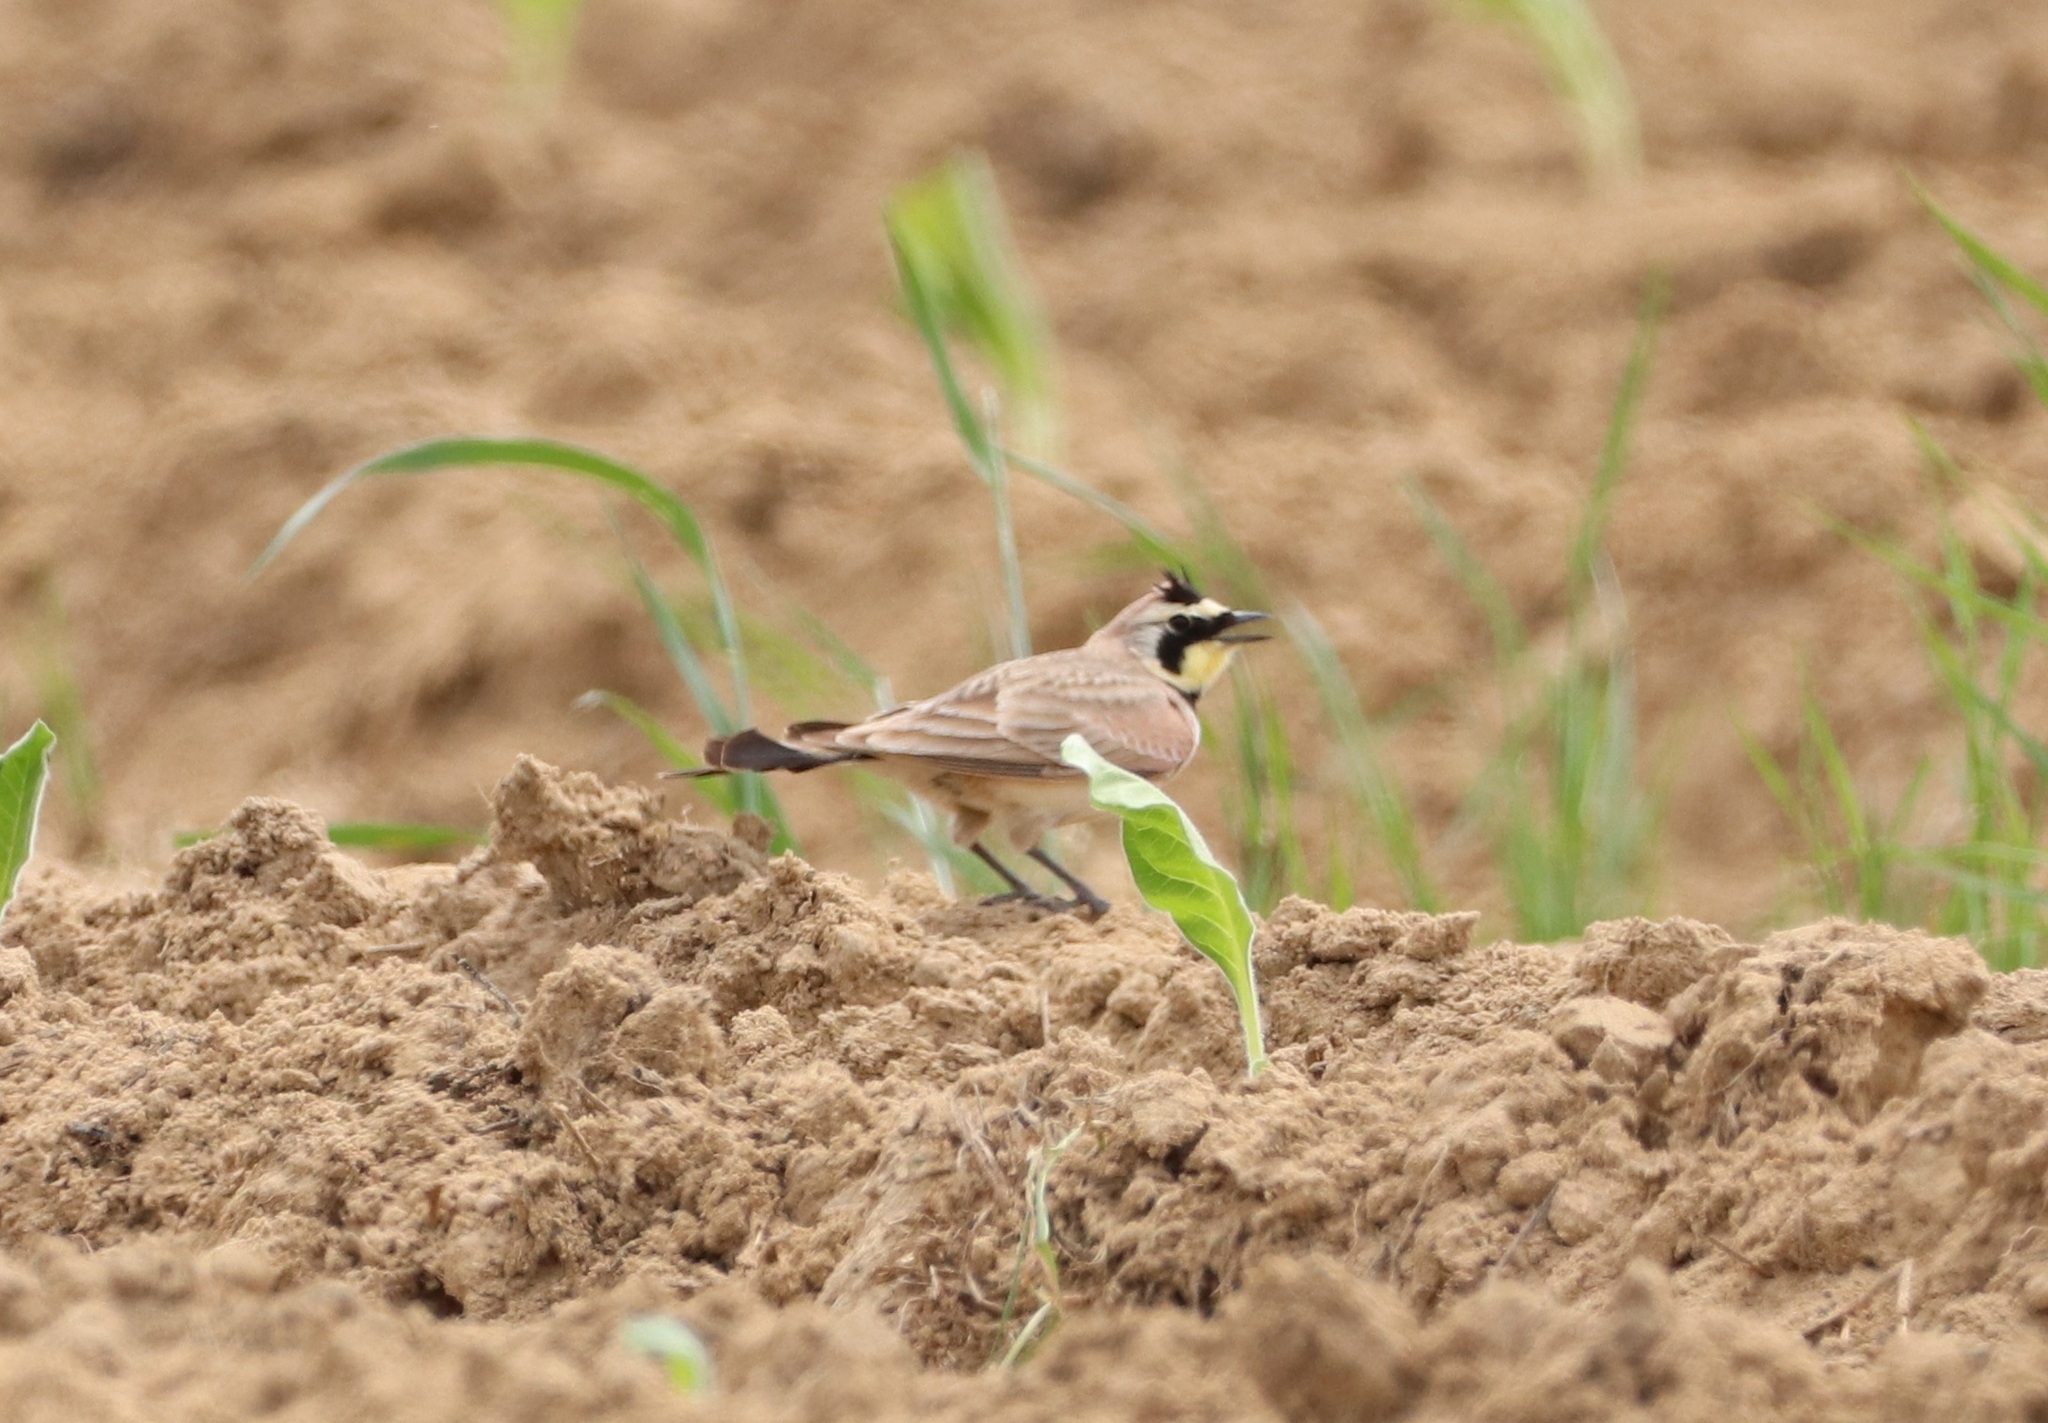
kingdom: Animalia
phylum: Chordata
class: Aves
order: Passeriformes
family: Alaudidae
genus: Eremophila
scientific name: Eremophila alpestris
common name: Horned lark
